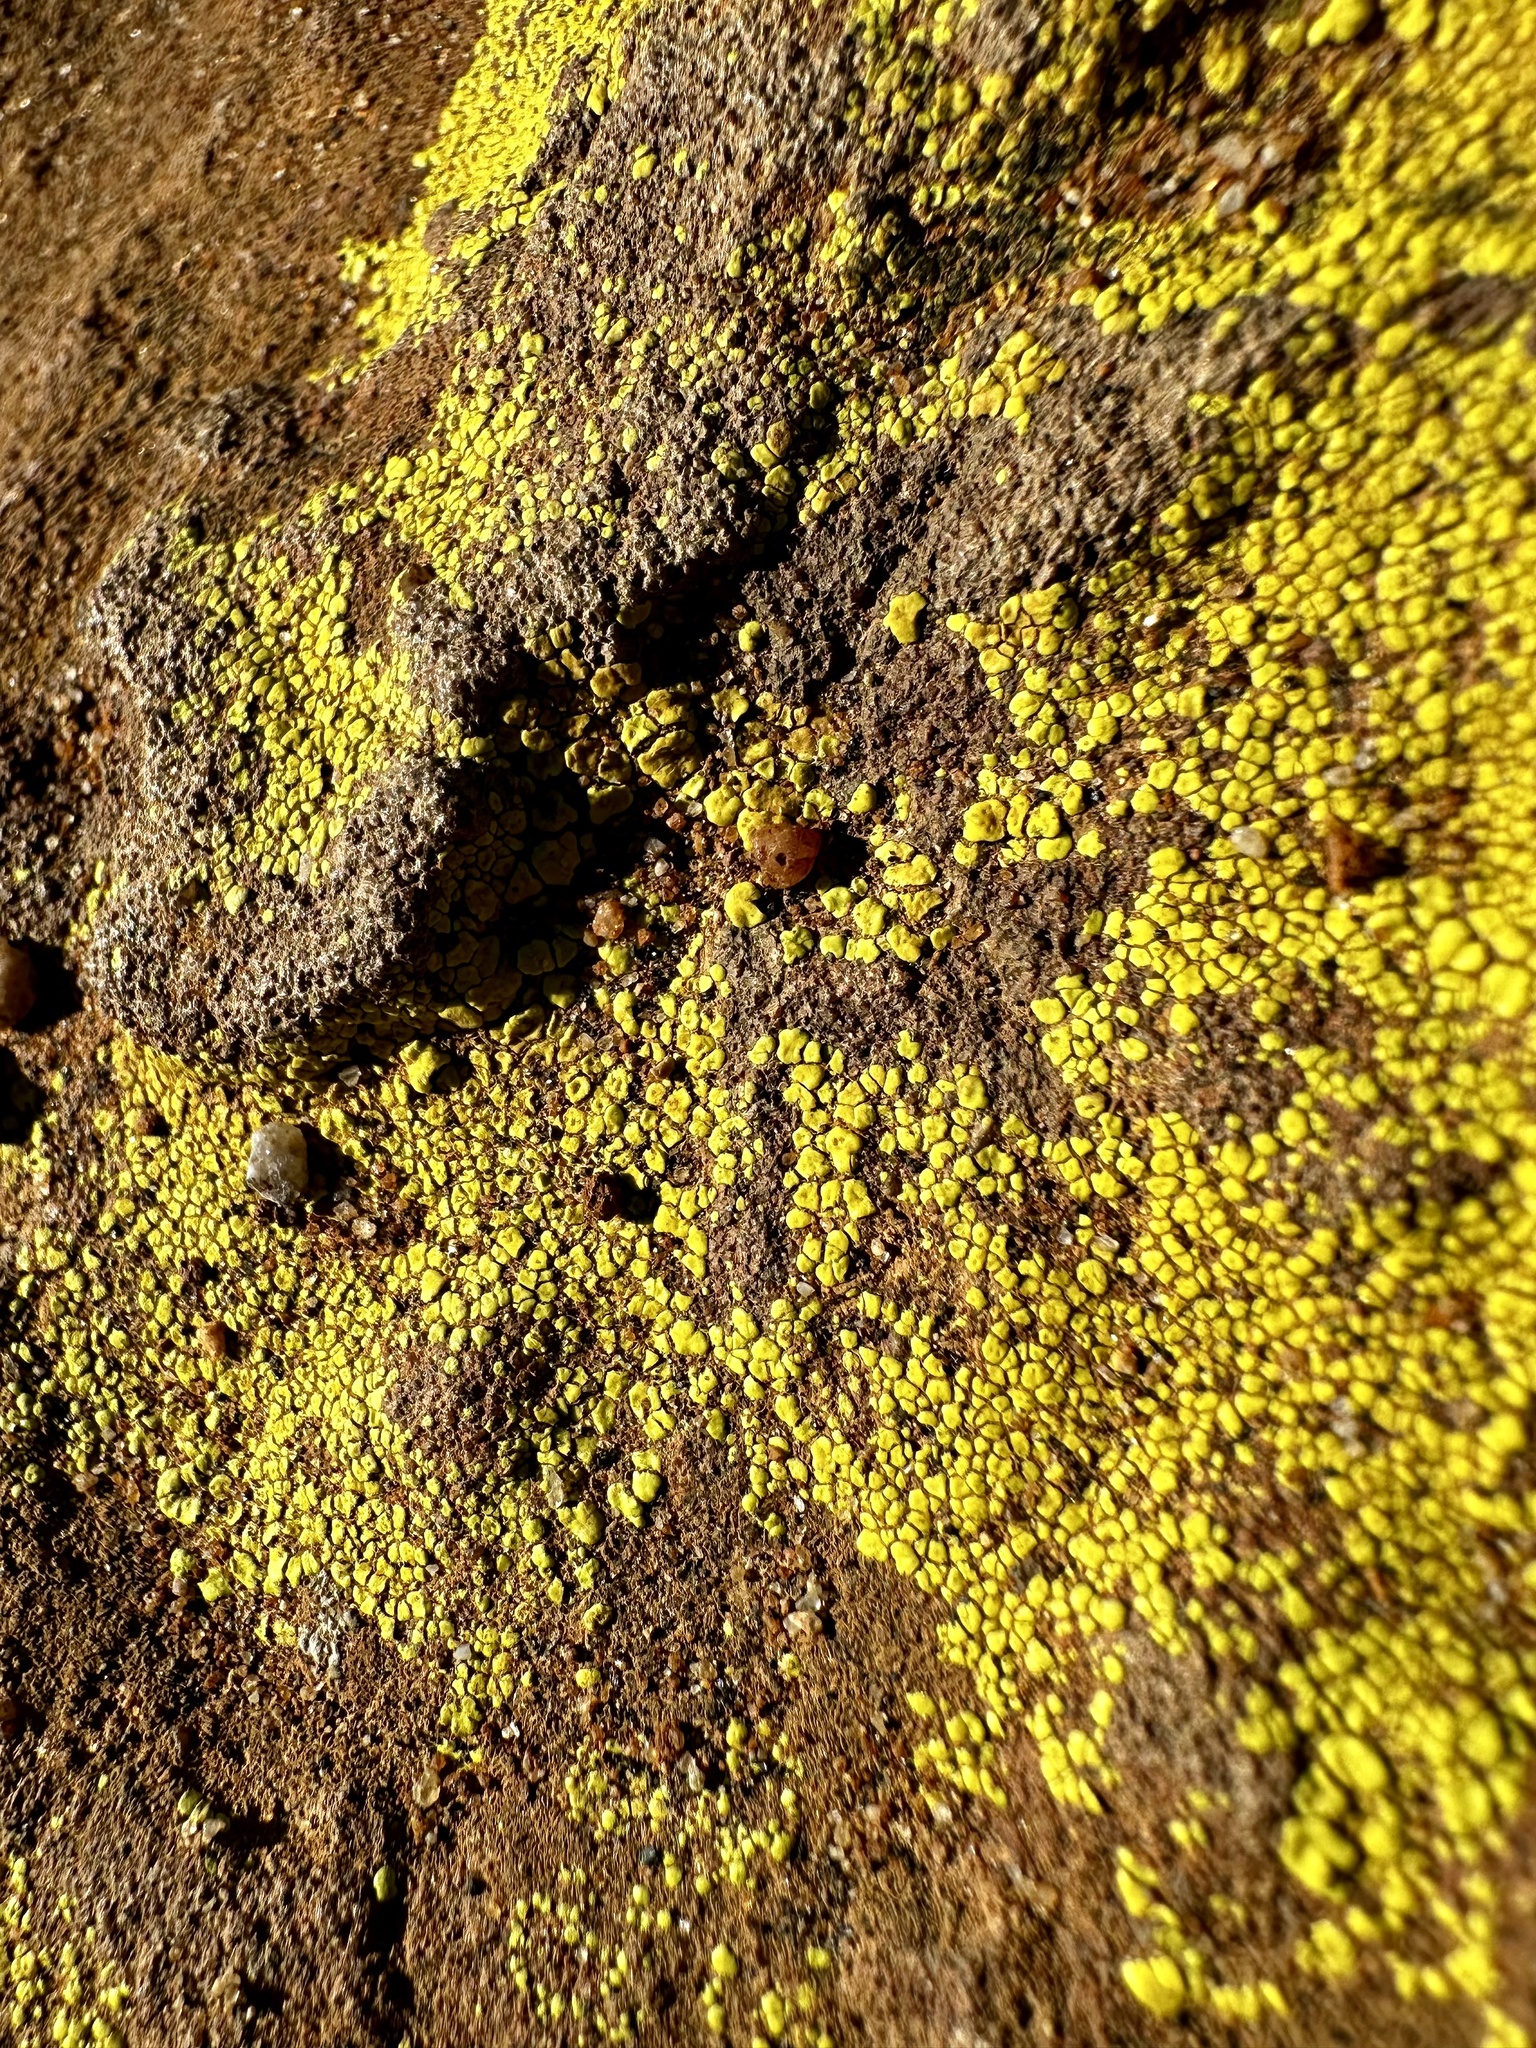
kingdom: Fungi
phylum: Ascomycota
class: Lecanoromycetes
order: Acarosporales
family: Acarosporaceae
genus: Acarospora
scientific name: Acarospora socialis
